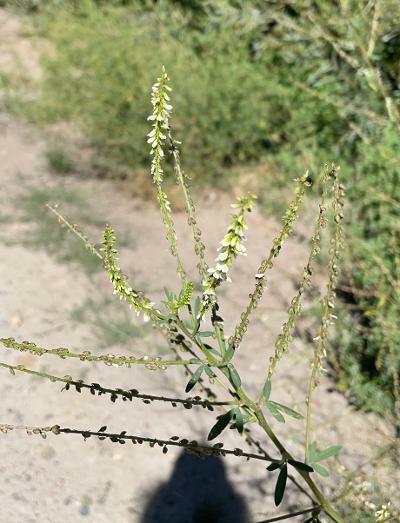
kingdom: Plantae
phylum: Tracheophyta
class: Magnoliopsida
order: Fabales
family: Fabaceae
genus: Melilotus
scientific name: Melilotus albus
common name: White melilot
